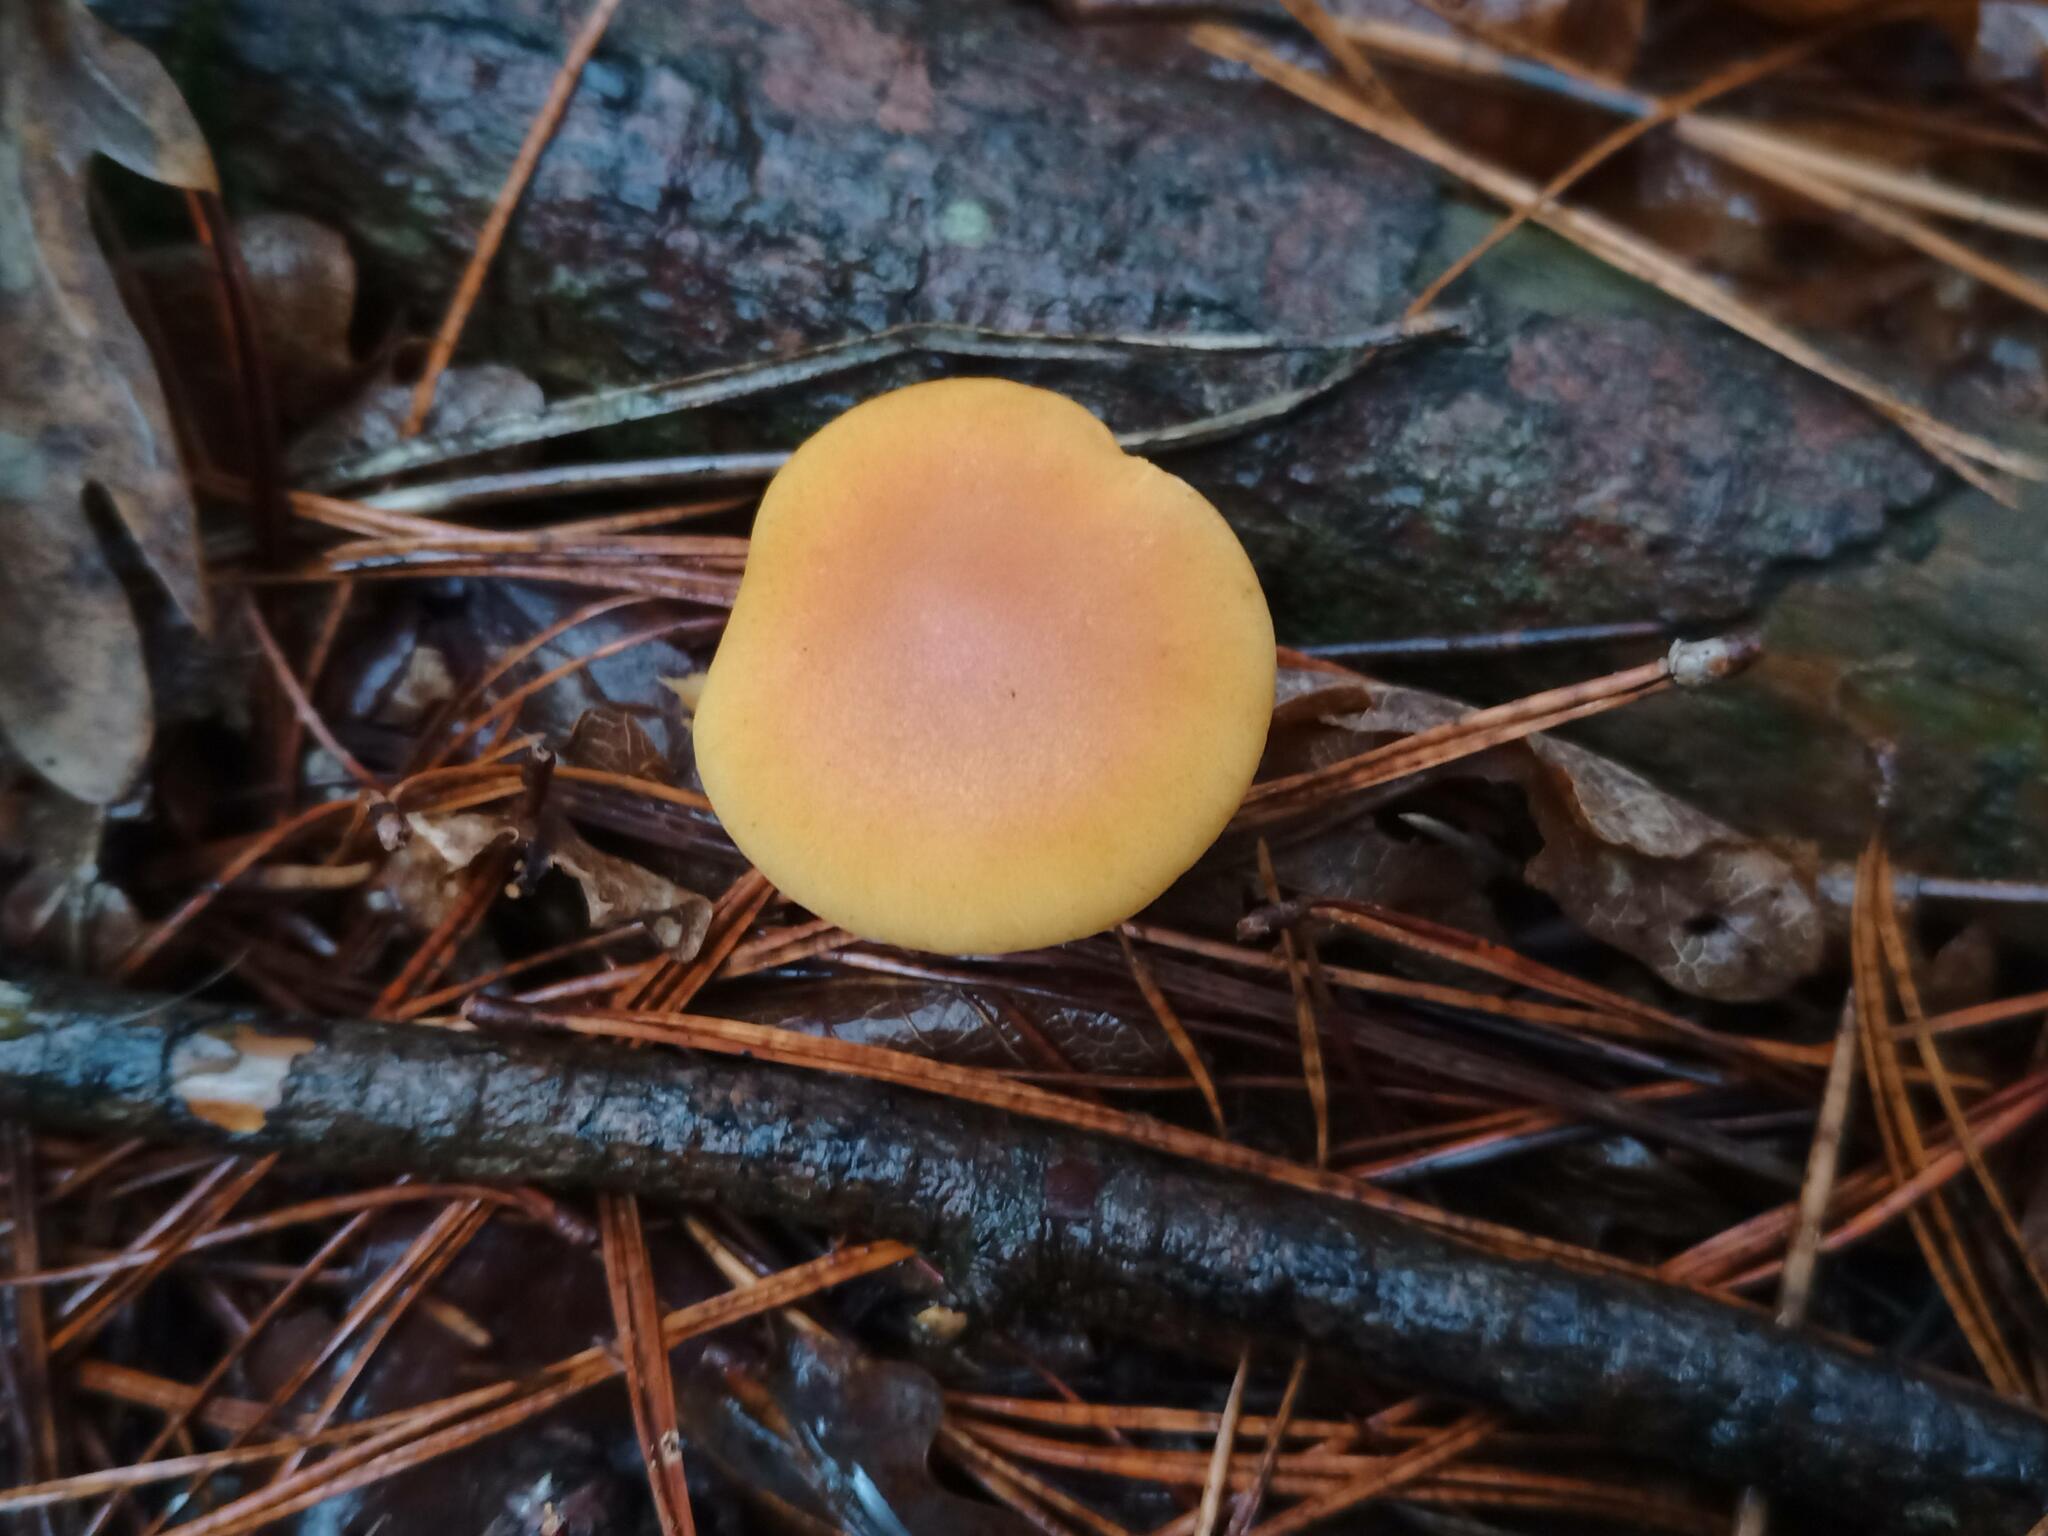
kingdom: Fungi
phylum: Basidiomycota
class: Agaricomycetes
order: Agaricales
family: Hymenogastraceae
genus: Gymnopilus
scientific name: Gymnopilus penetrans
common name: Common rustgill
